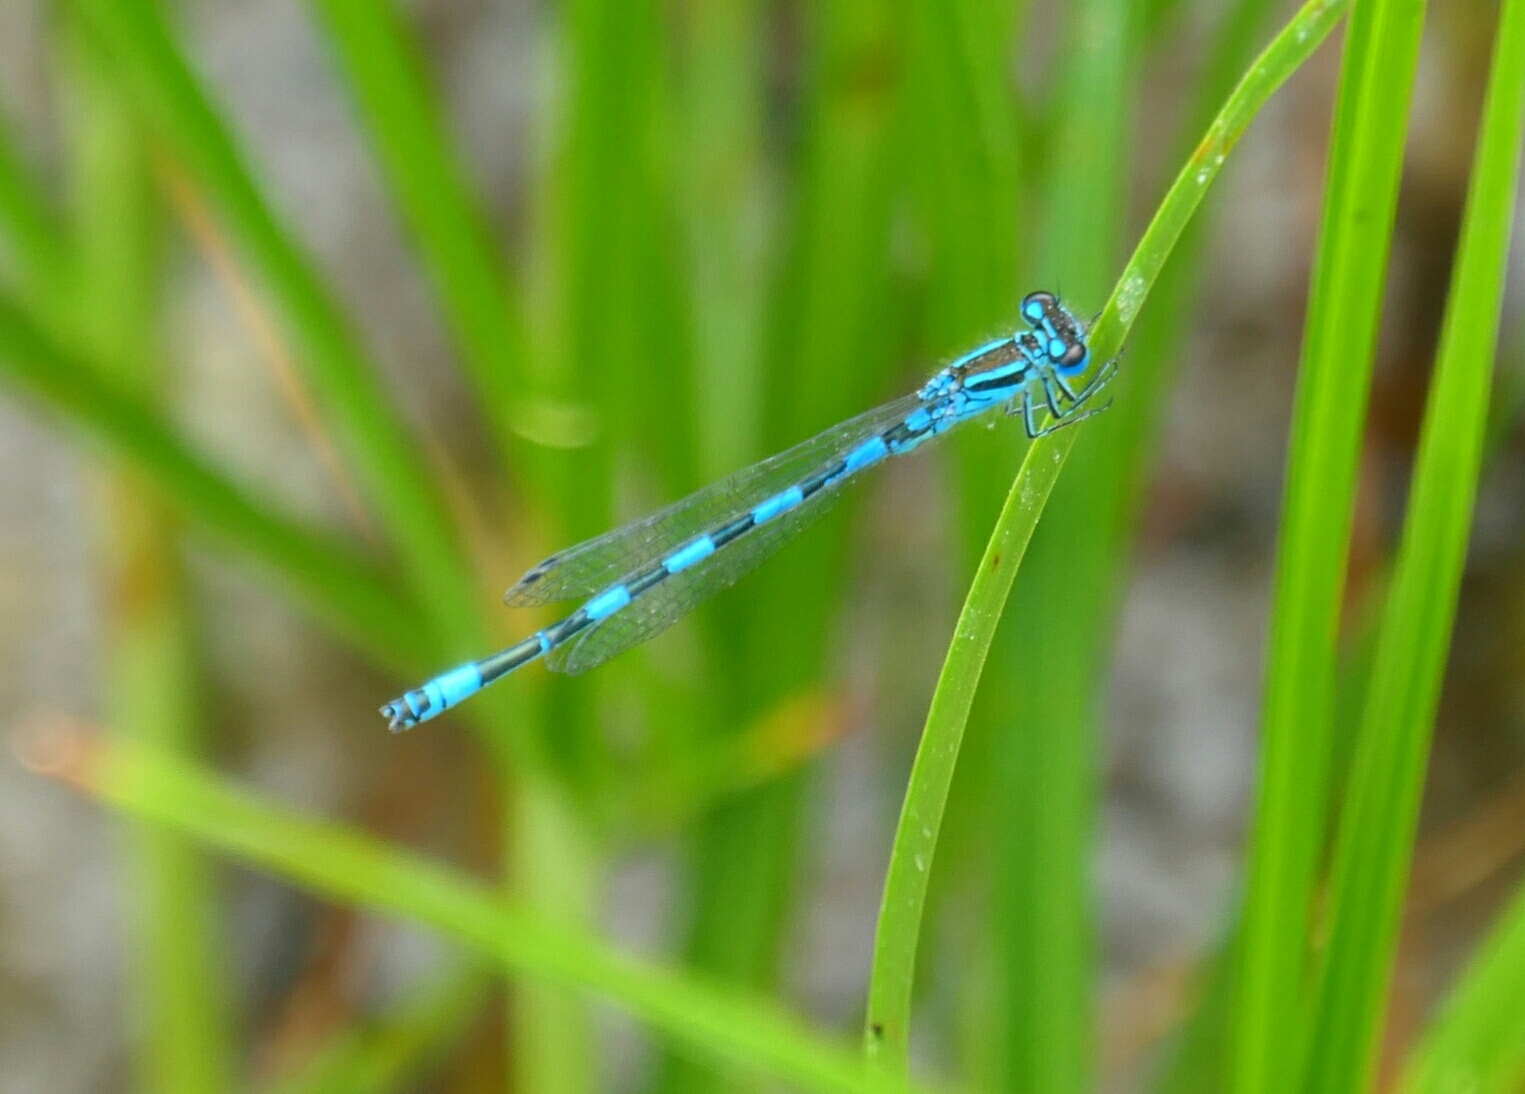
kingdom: Animalia
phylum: Arthropoda
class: Insecta
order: Odonata
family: Coenagrionidae
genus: Coenagrion
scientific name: Coenagrion mercuriale
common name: Southern damselfly
